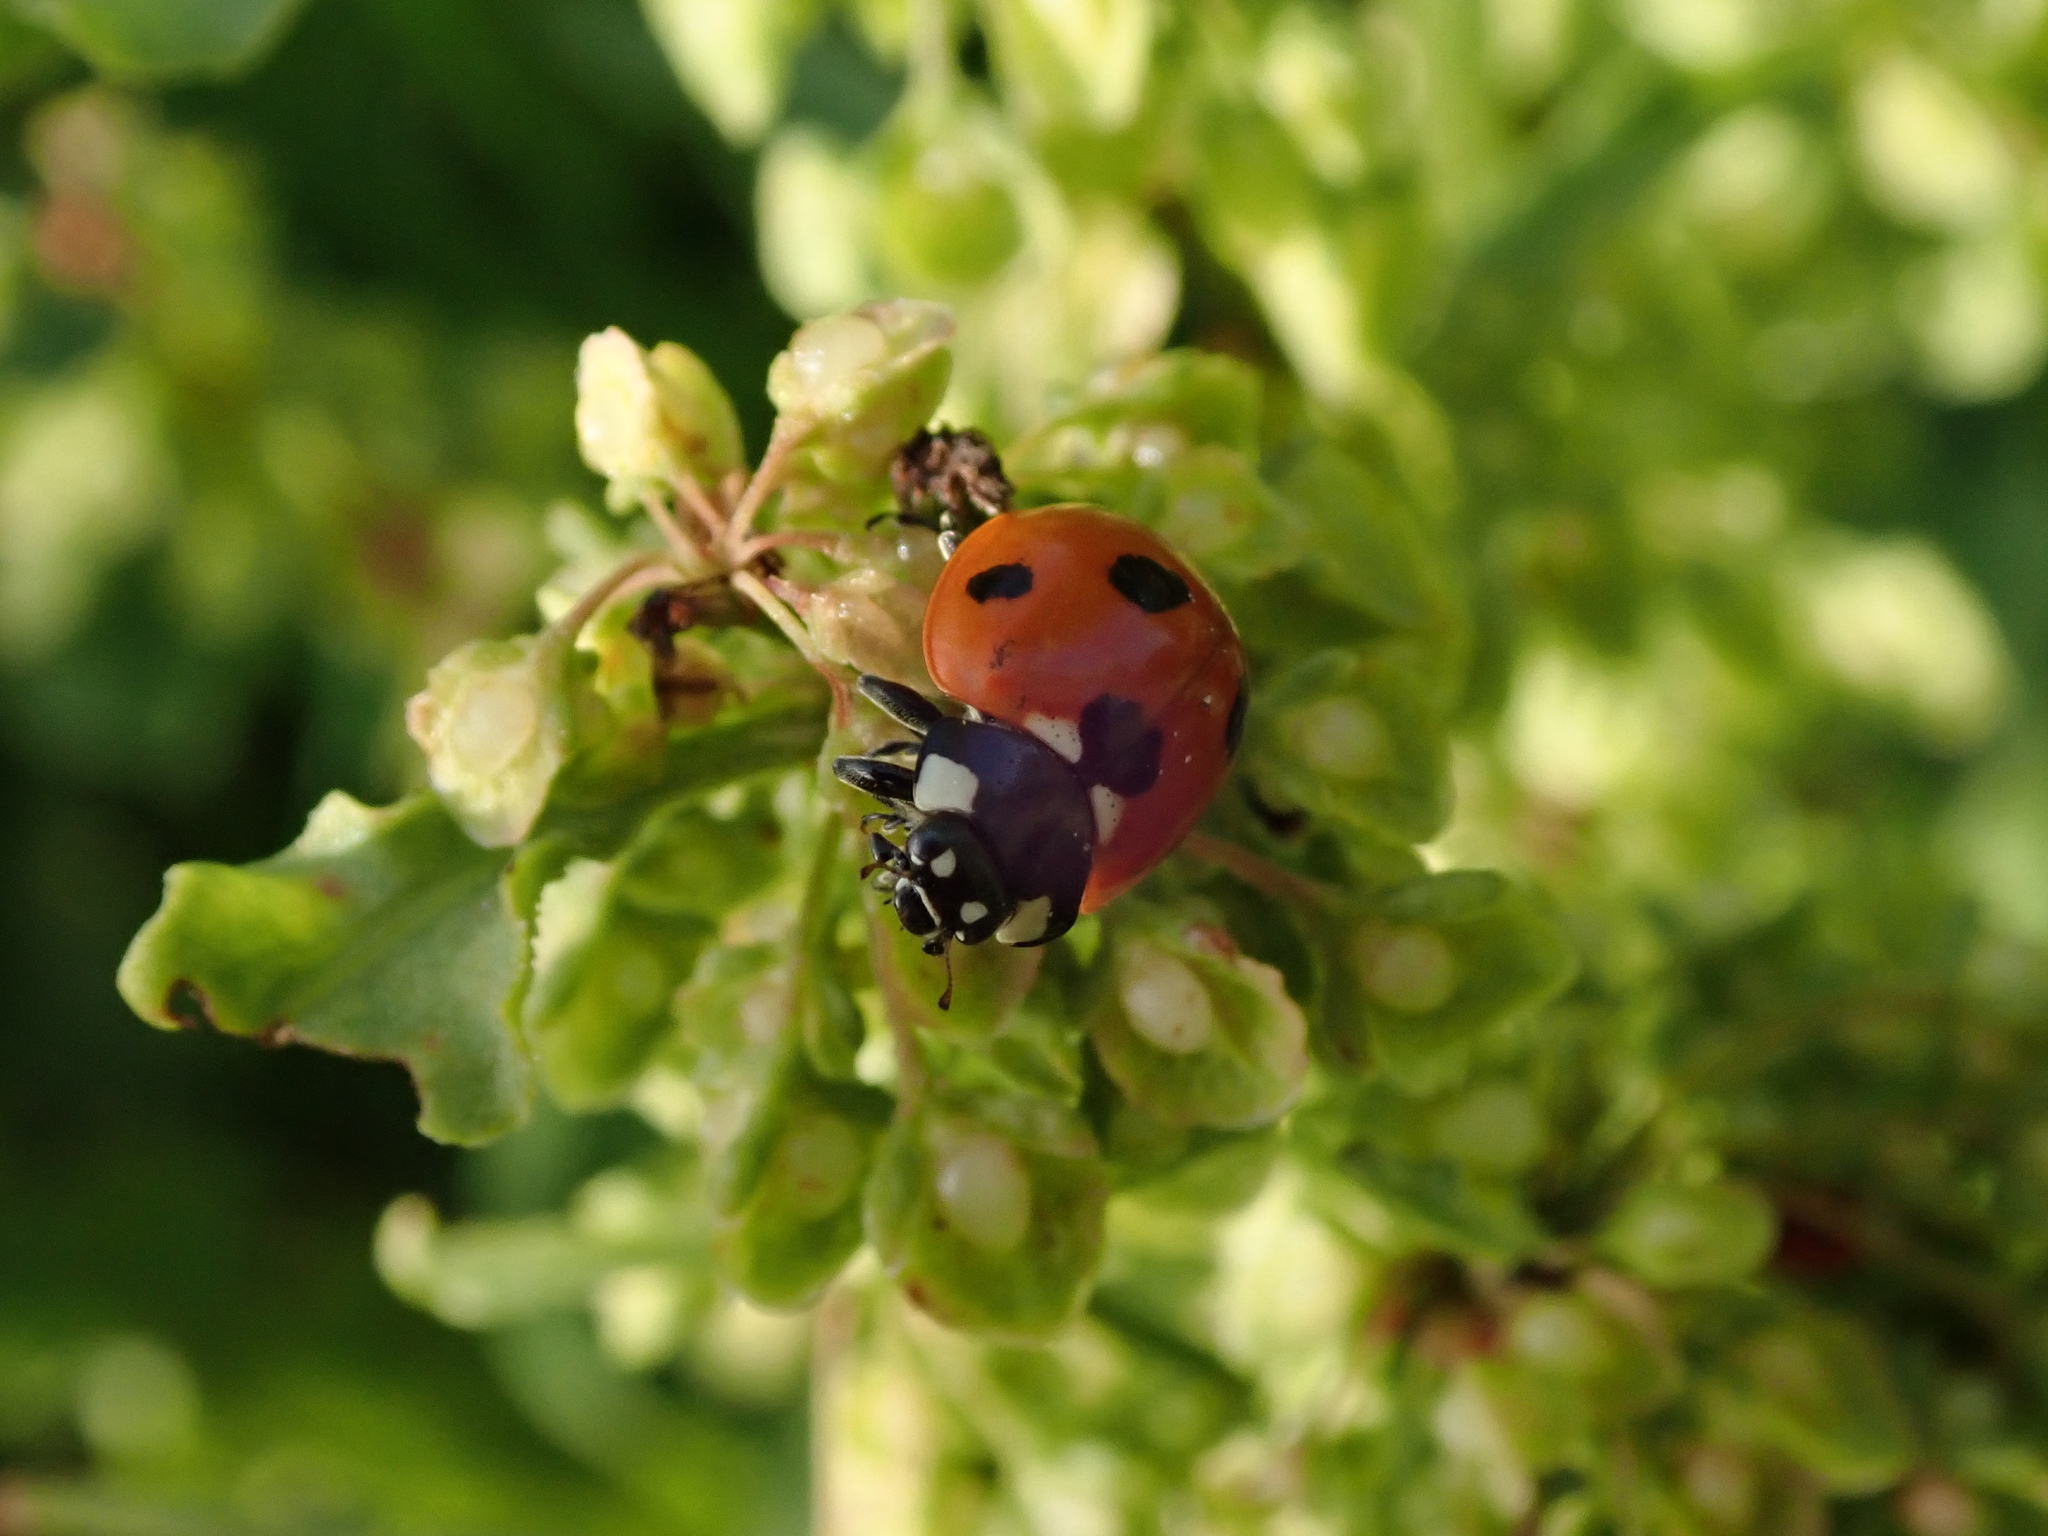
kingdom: Animalia
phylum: Arthropoda
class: Insecta
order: Coleoptera
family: Coccinellidae
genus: Coccinella
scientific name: Coccinella septempunctata
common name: Sevenspotted lady beetle
